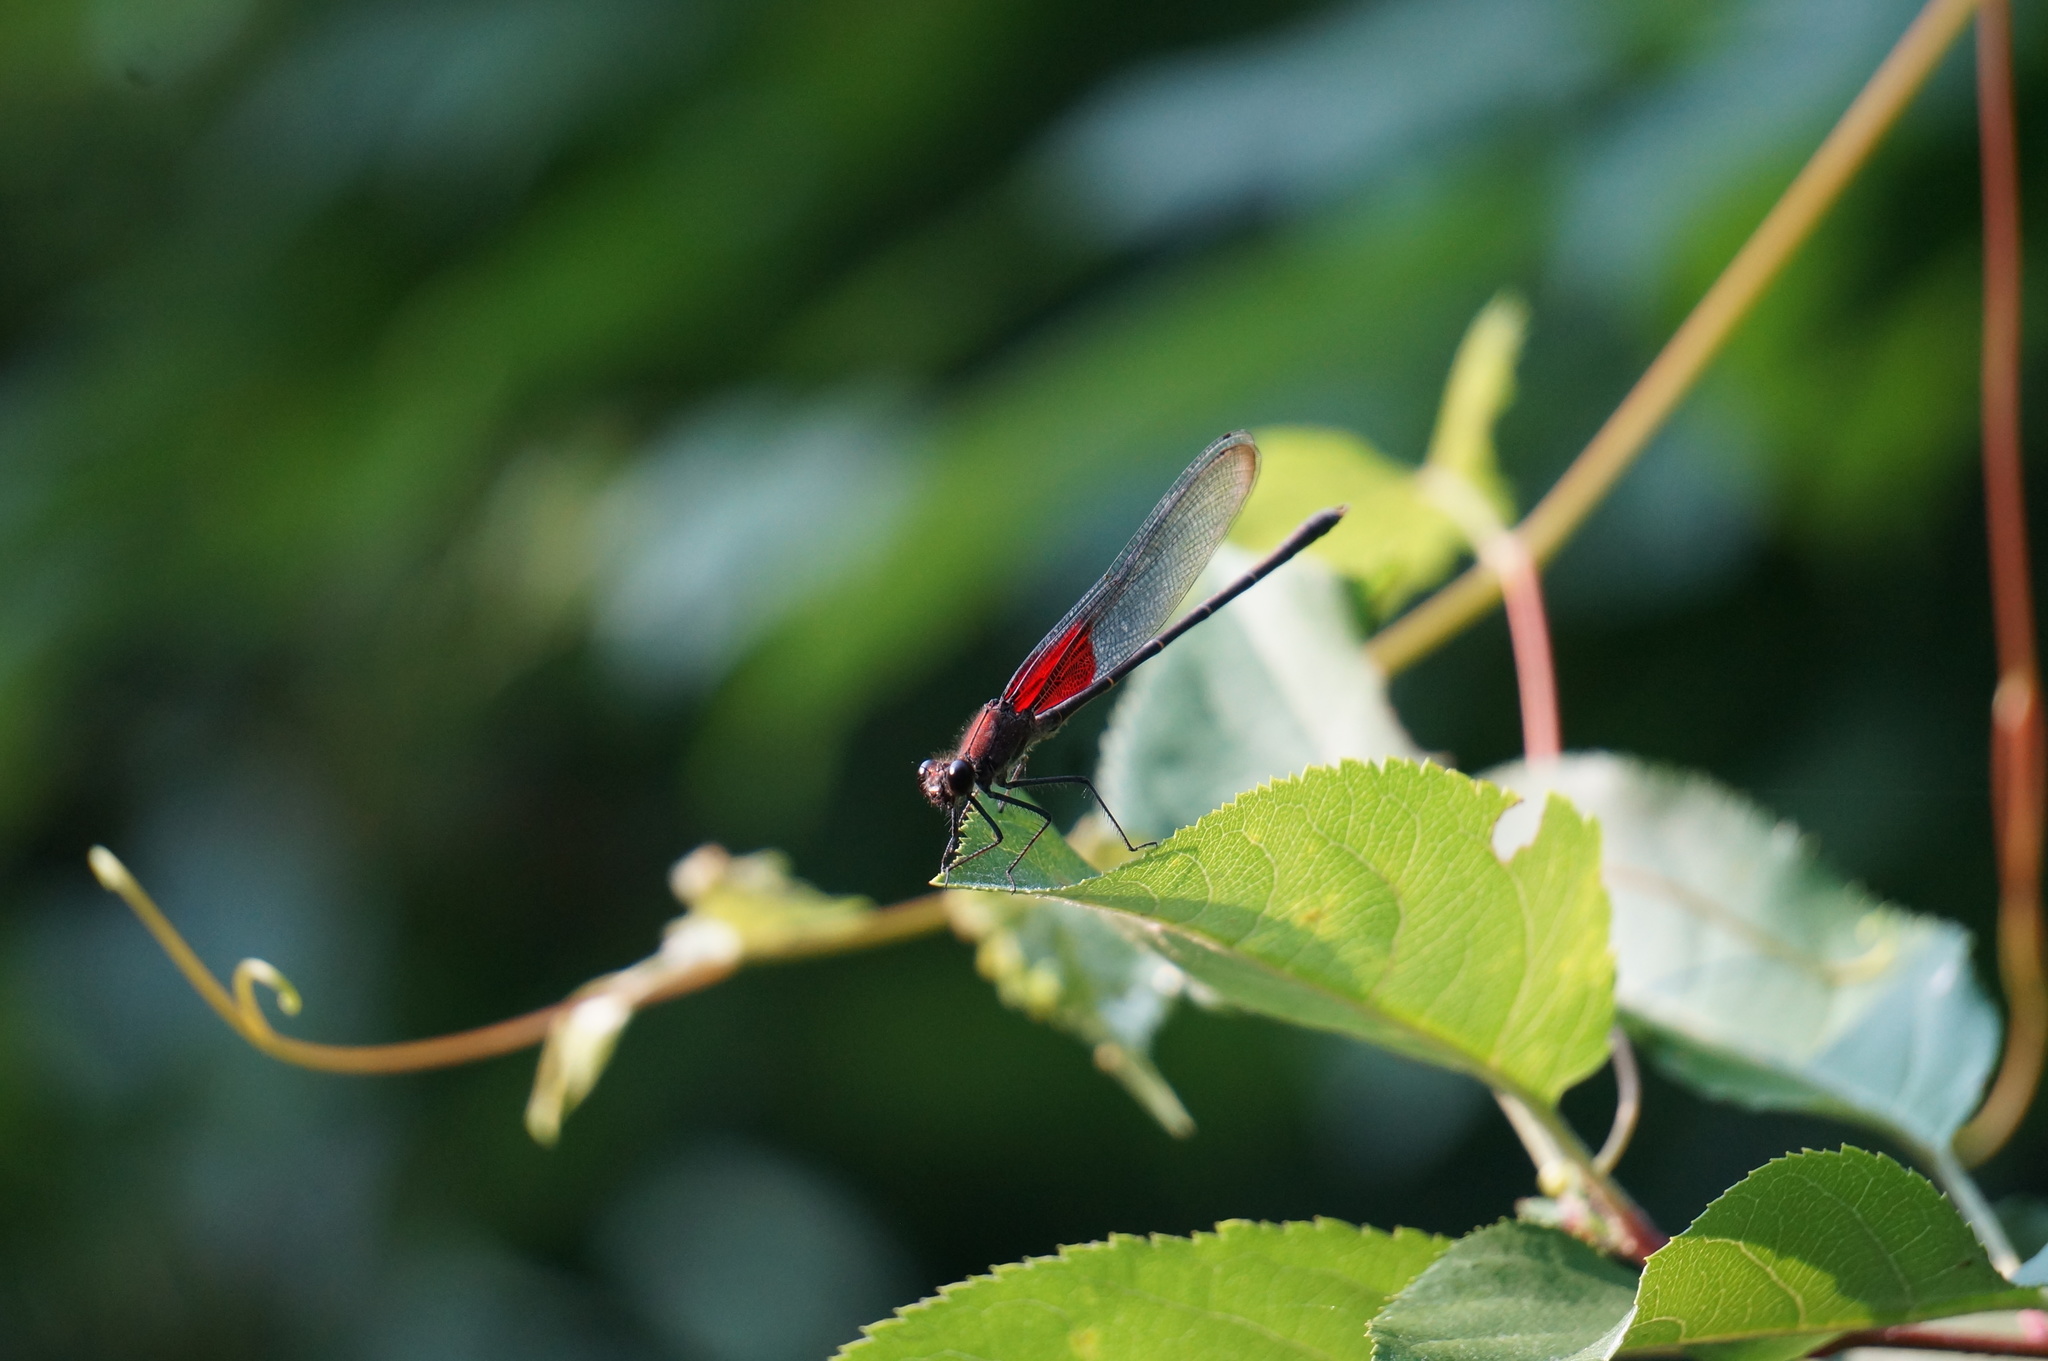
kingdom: Animalia
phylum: Arthropoda
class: Insecta
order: Odonata
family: Calopterygidae
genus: Hetaerina
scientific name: Hetaerina americana
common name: American rubyspot
